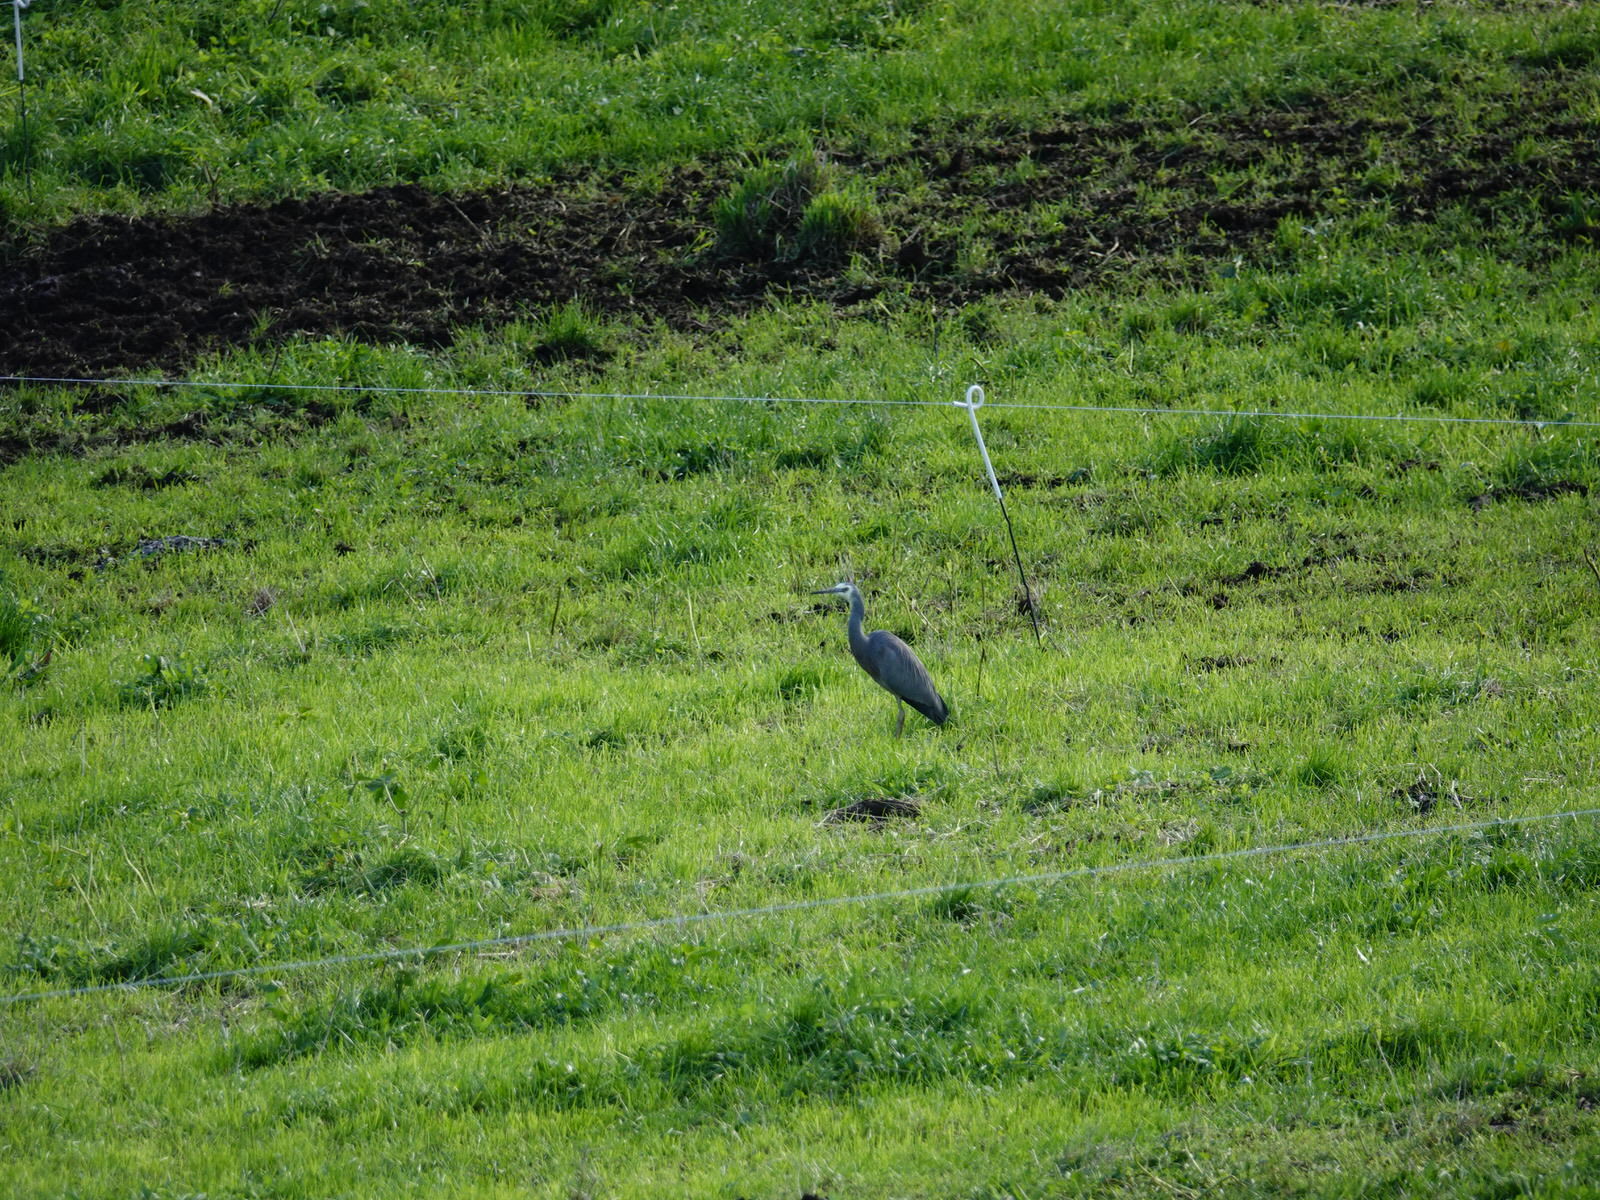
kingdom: Animalia
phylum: Chordata
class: Aves
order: Pelecaniformes
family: Ardeidae
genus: Egretta
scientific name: Egretta novaehollandiae
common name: White-faced heron
